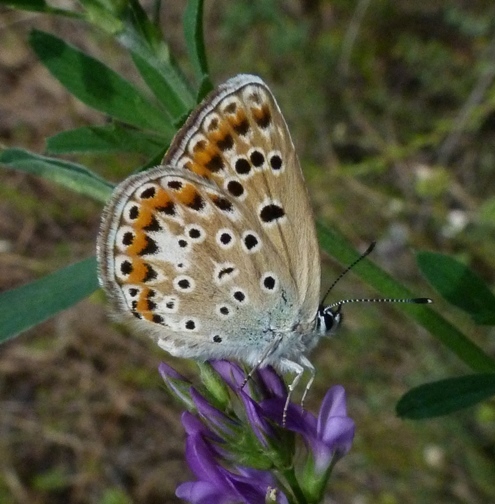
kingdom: Animalia
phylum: Arthropoda
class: Insecta
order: Lepidoptera
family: Lycaenidae
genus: Plebicula
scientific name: Plebicula escheri
